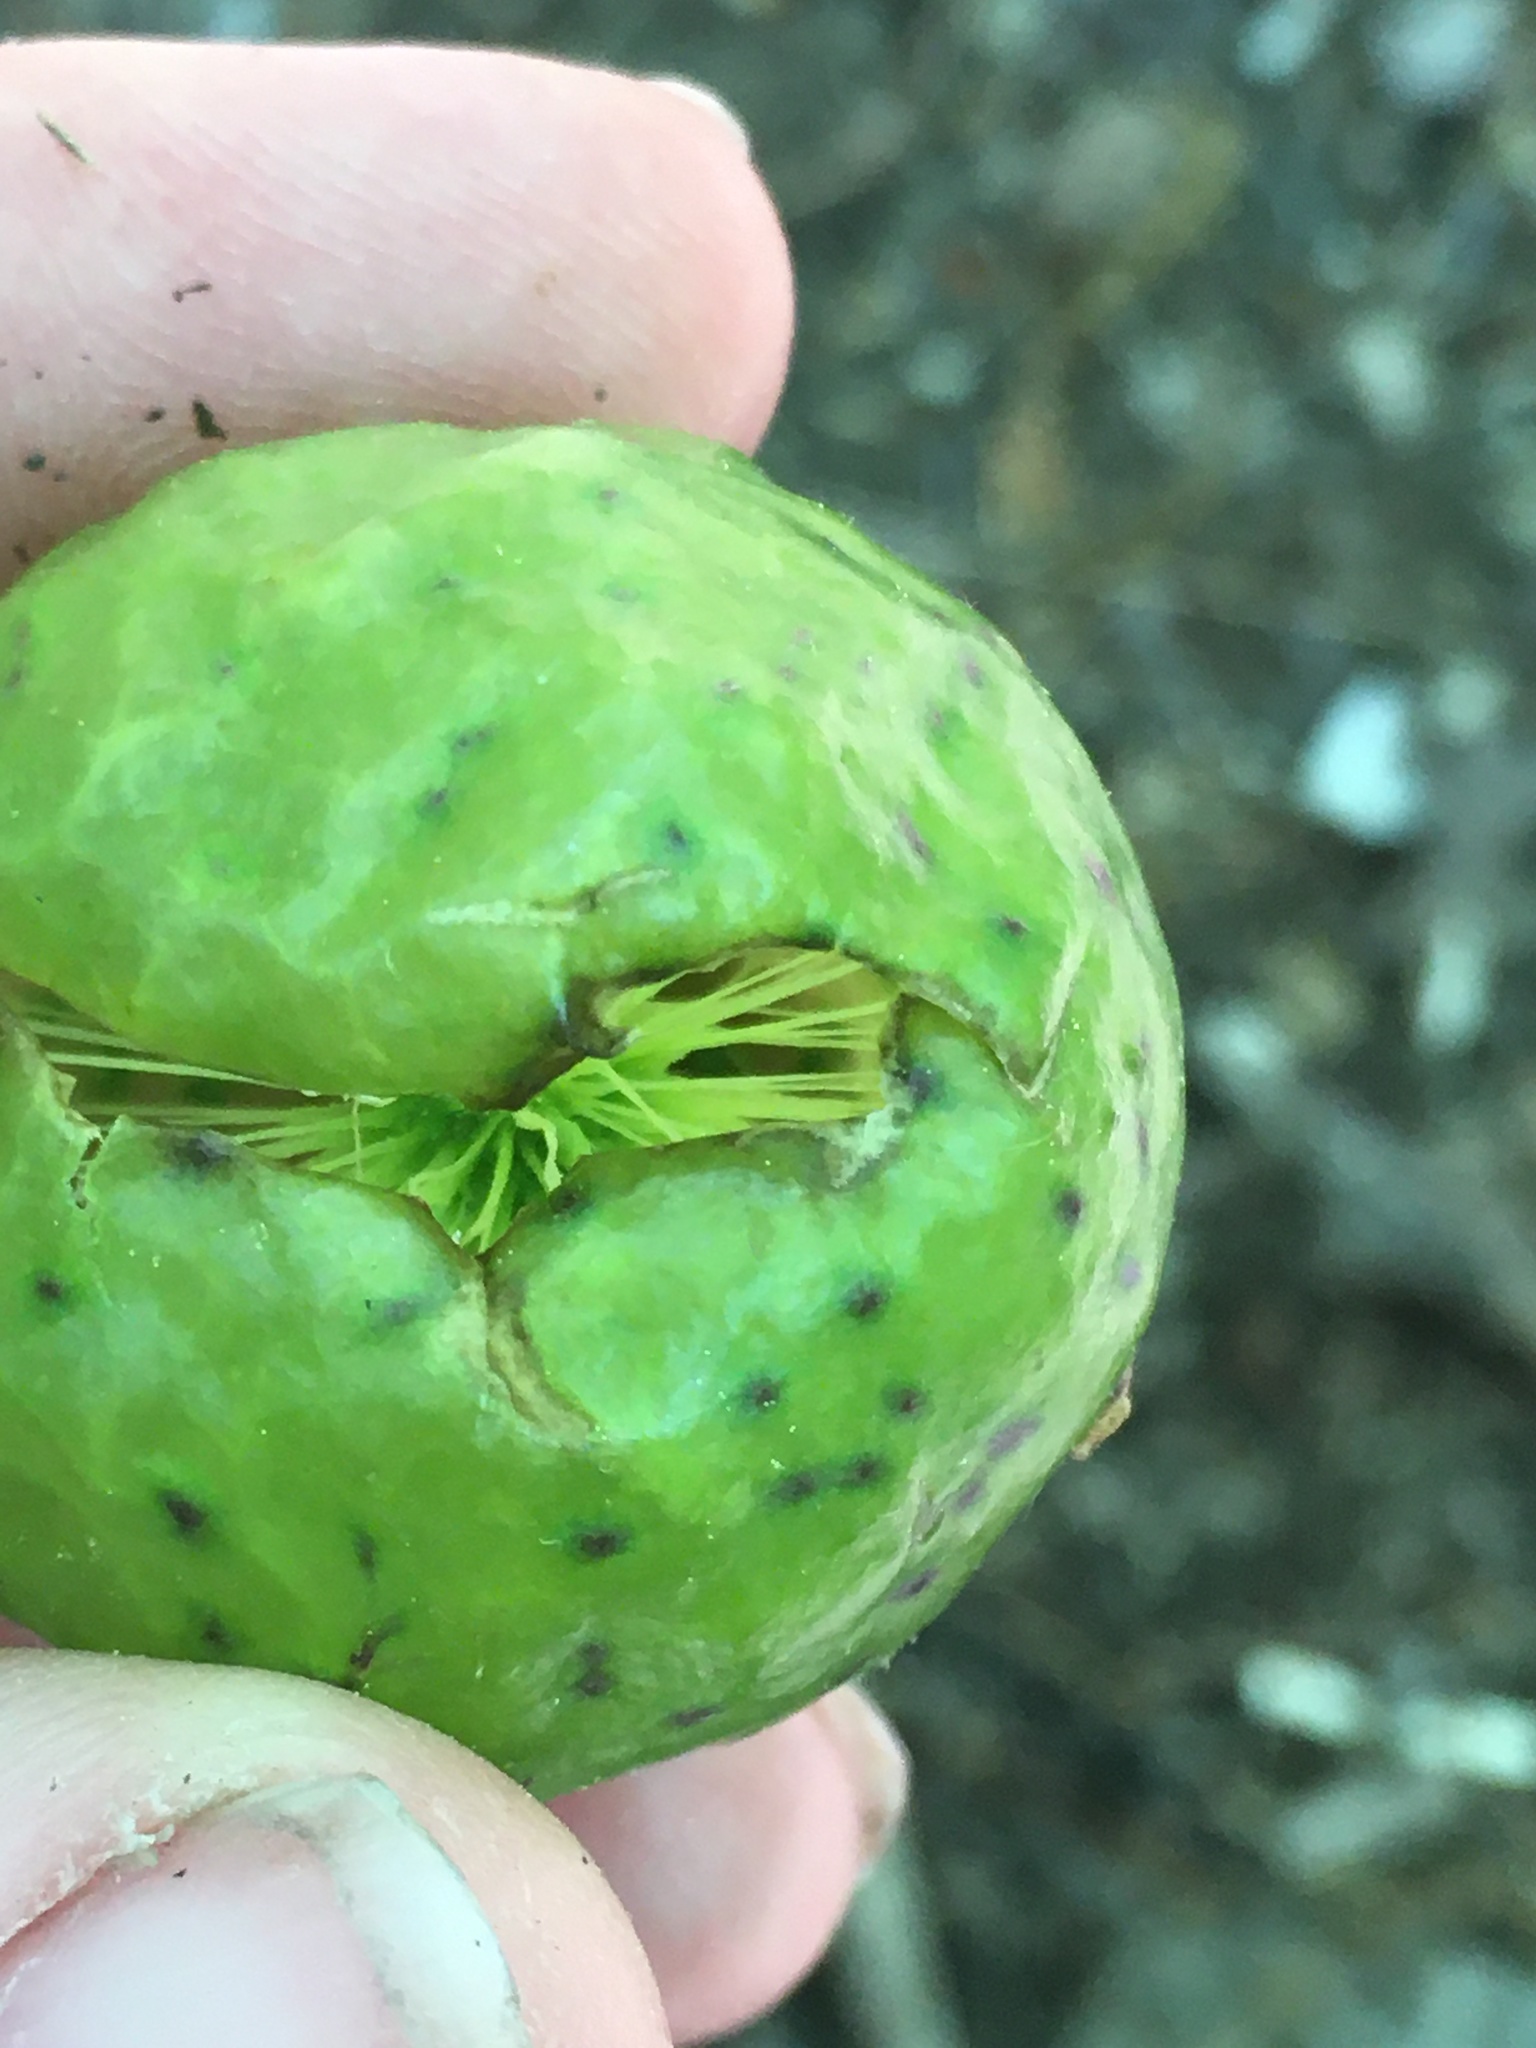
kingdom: Animalia
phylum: Arthropoda
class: Insecta
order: Hymenoptera
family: Cynipidae
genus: Amphibolips
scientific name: Amphibolips
